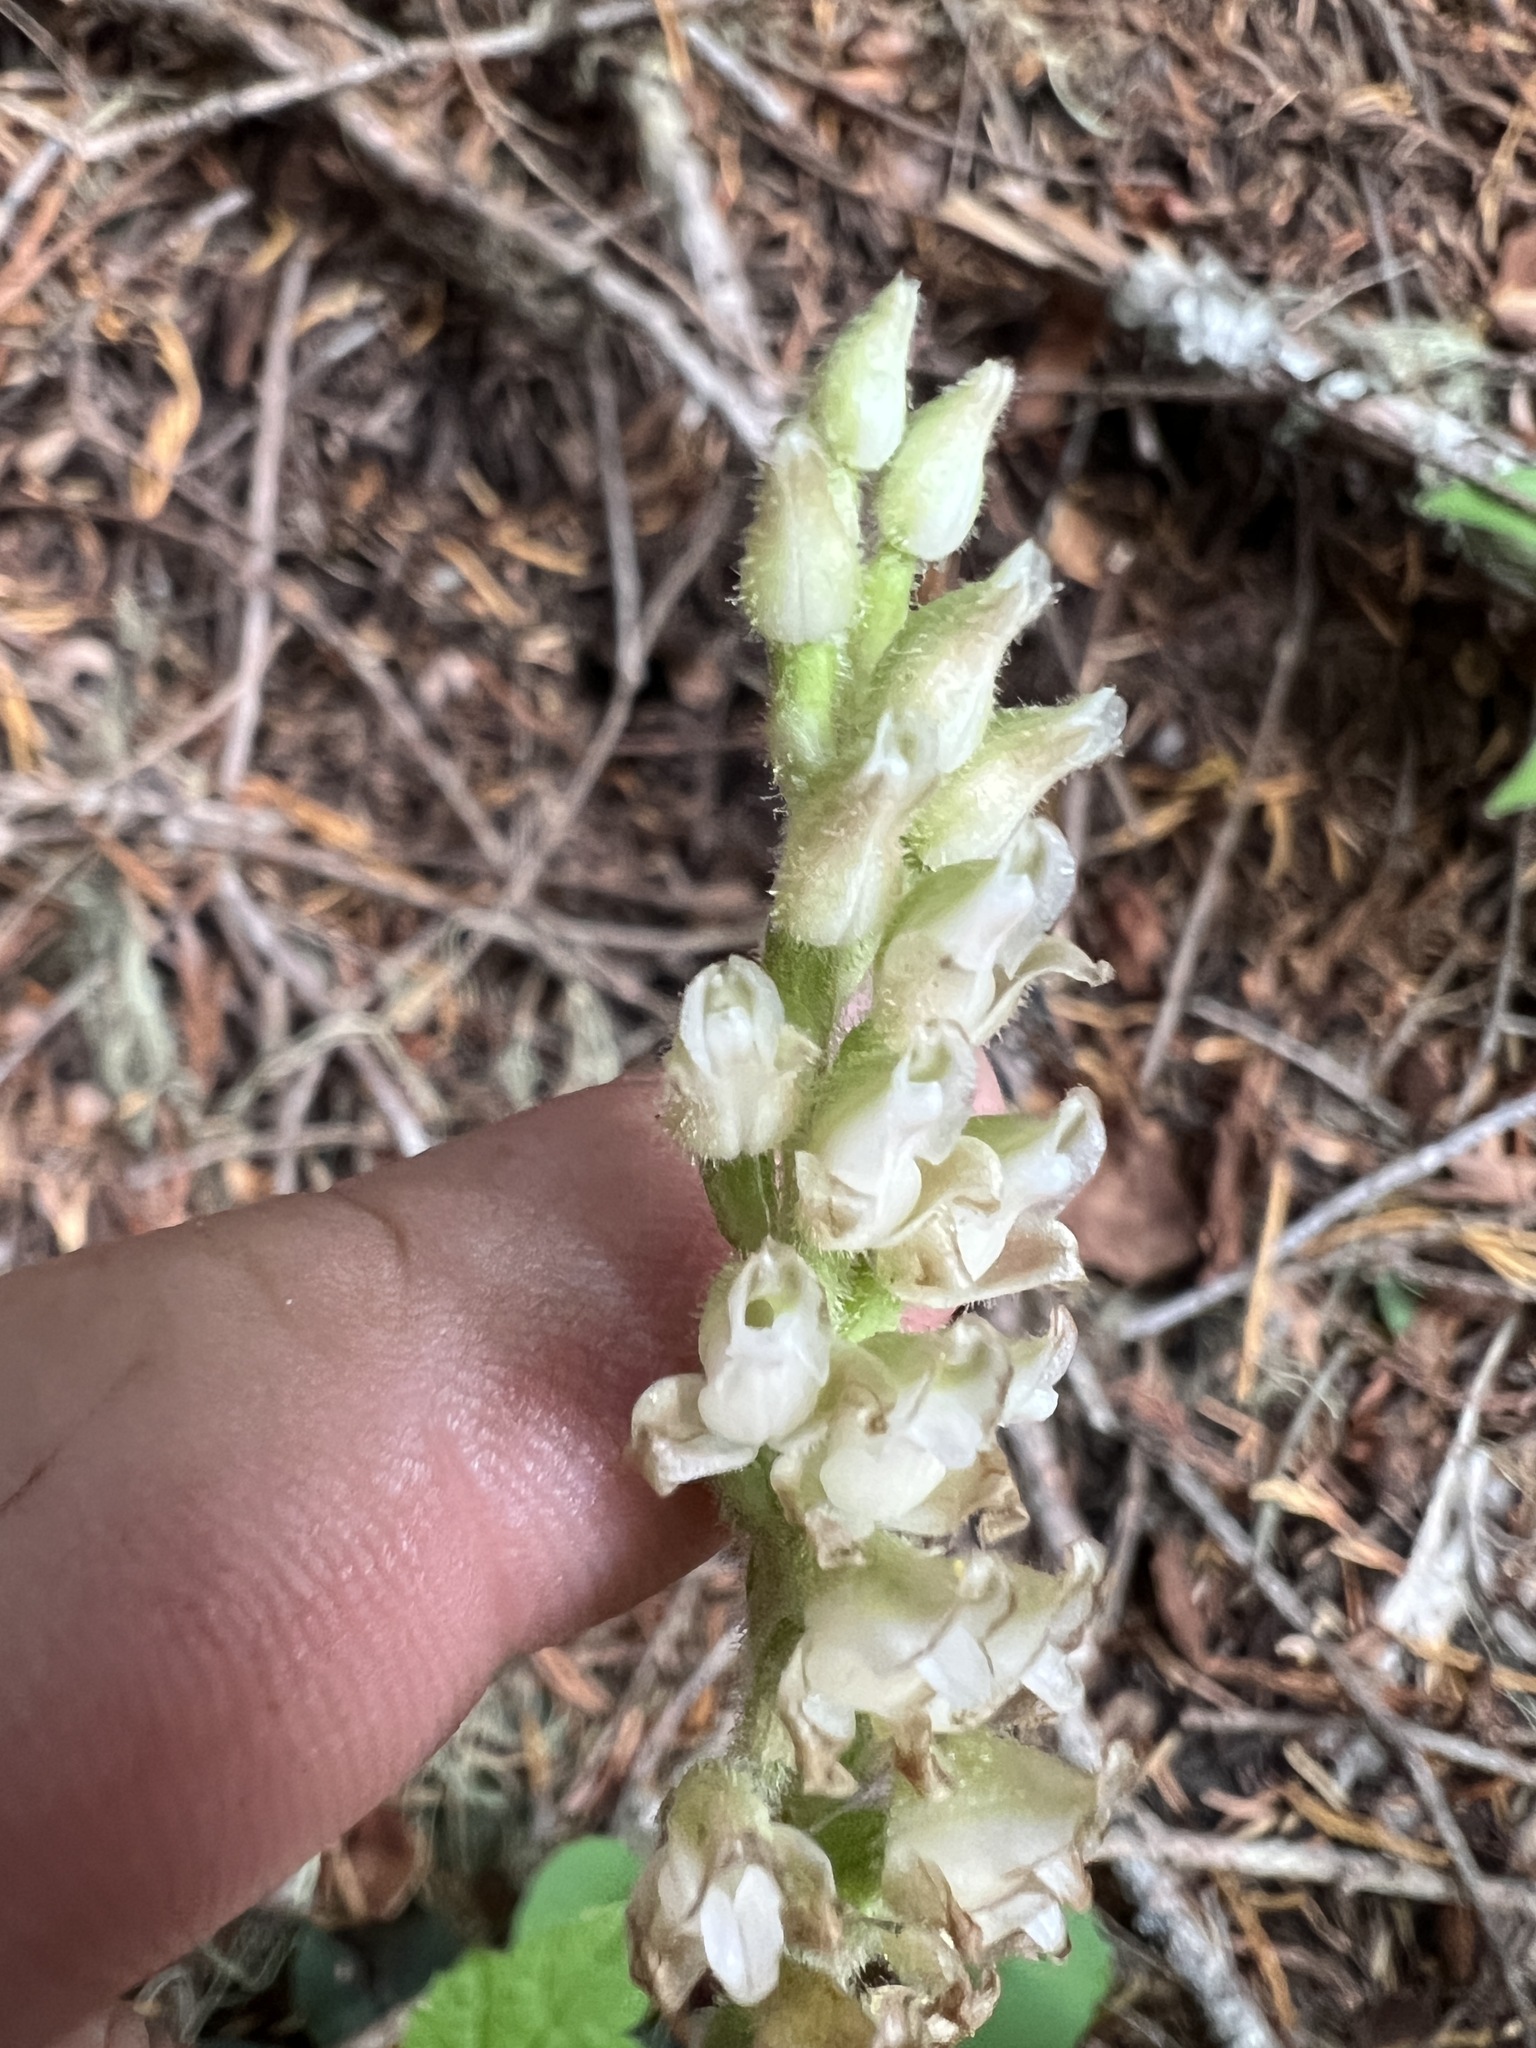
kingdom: Plantae
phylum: Tracheophyta
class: Liliopsida
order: Asparagales
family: Orchidaceae
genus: Goodyera
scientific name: Goodyera oblongifolia
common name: Giant rattlesnake-plantain
